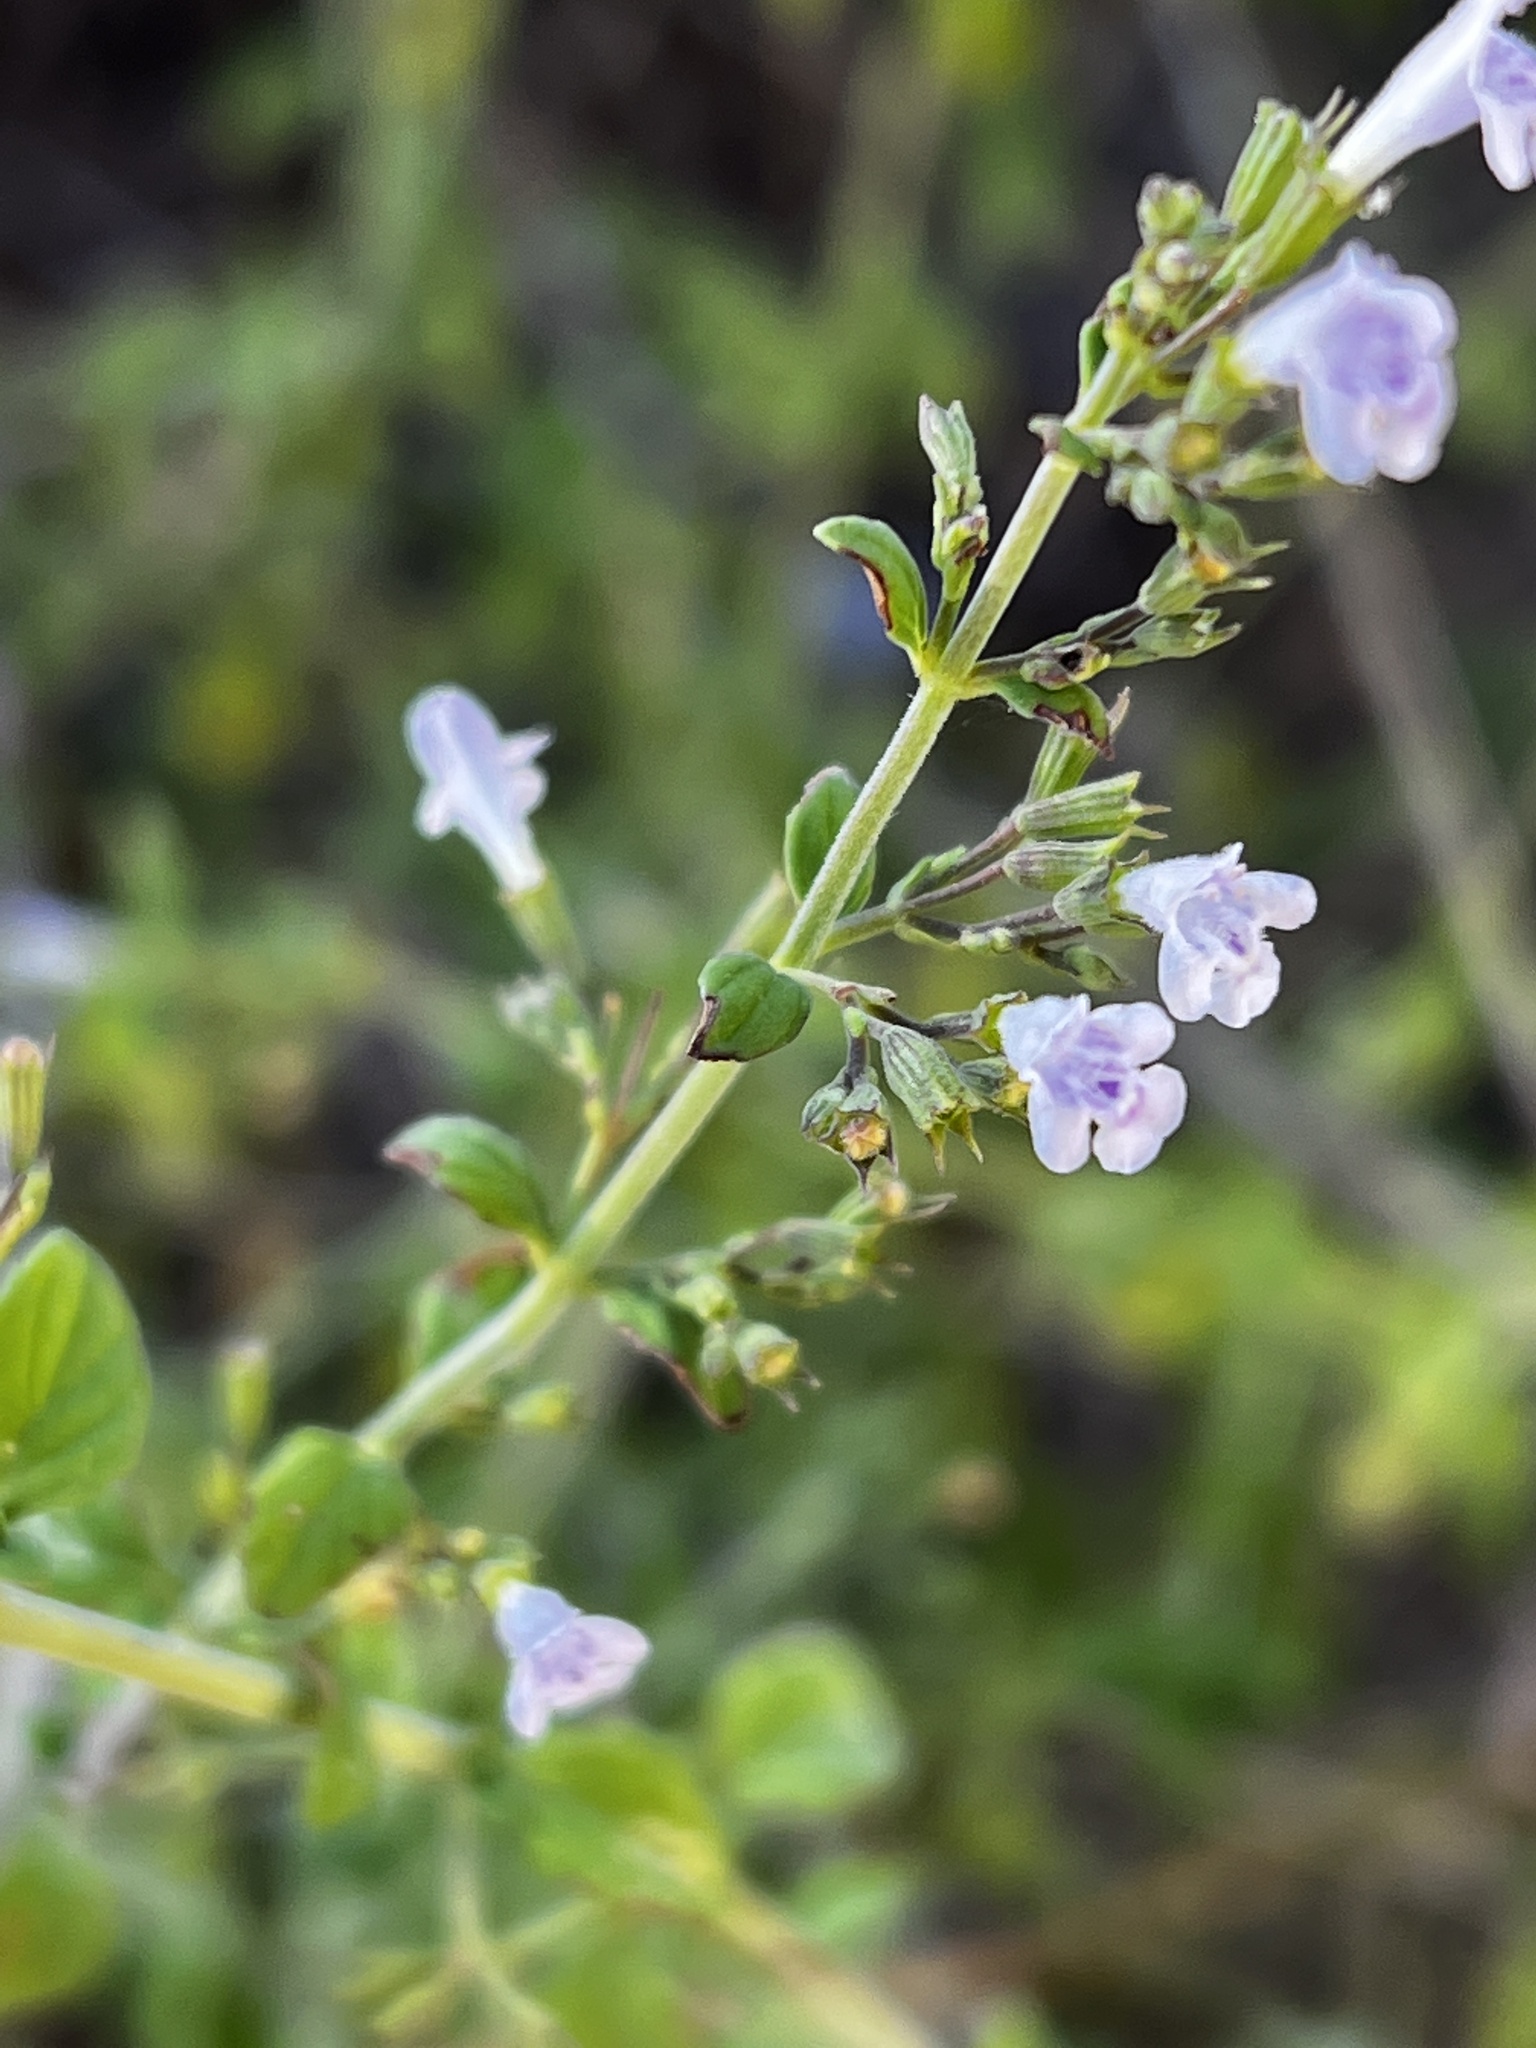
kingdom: Plantae
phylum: Tracheophyta
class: Magnoliopsida
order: Lamiales
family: Lamiaceae
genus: Clinopodium
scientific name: Clinopodium nepeta
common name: Lesser calamint
